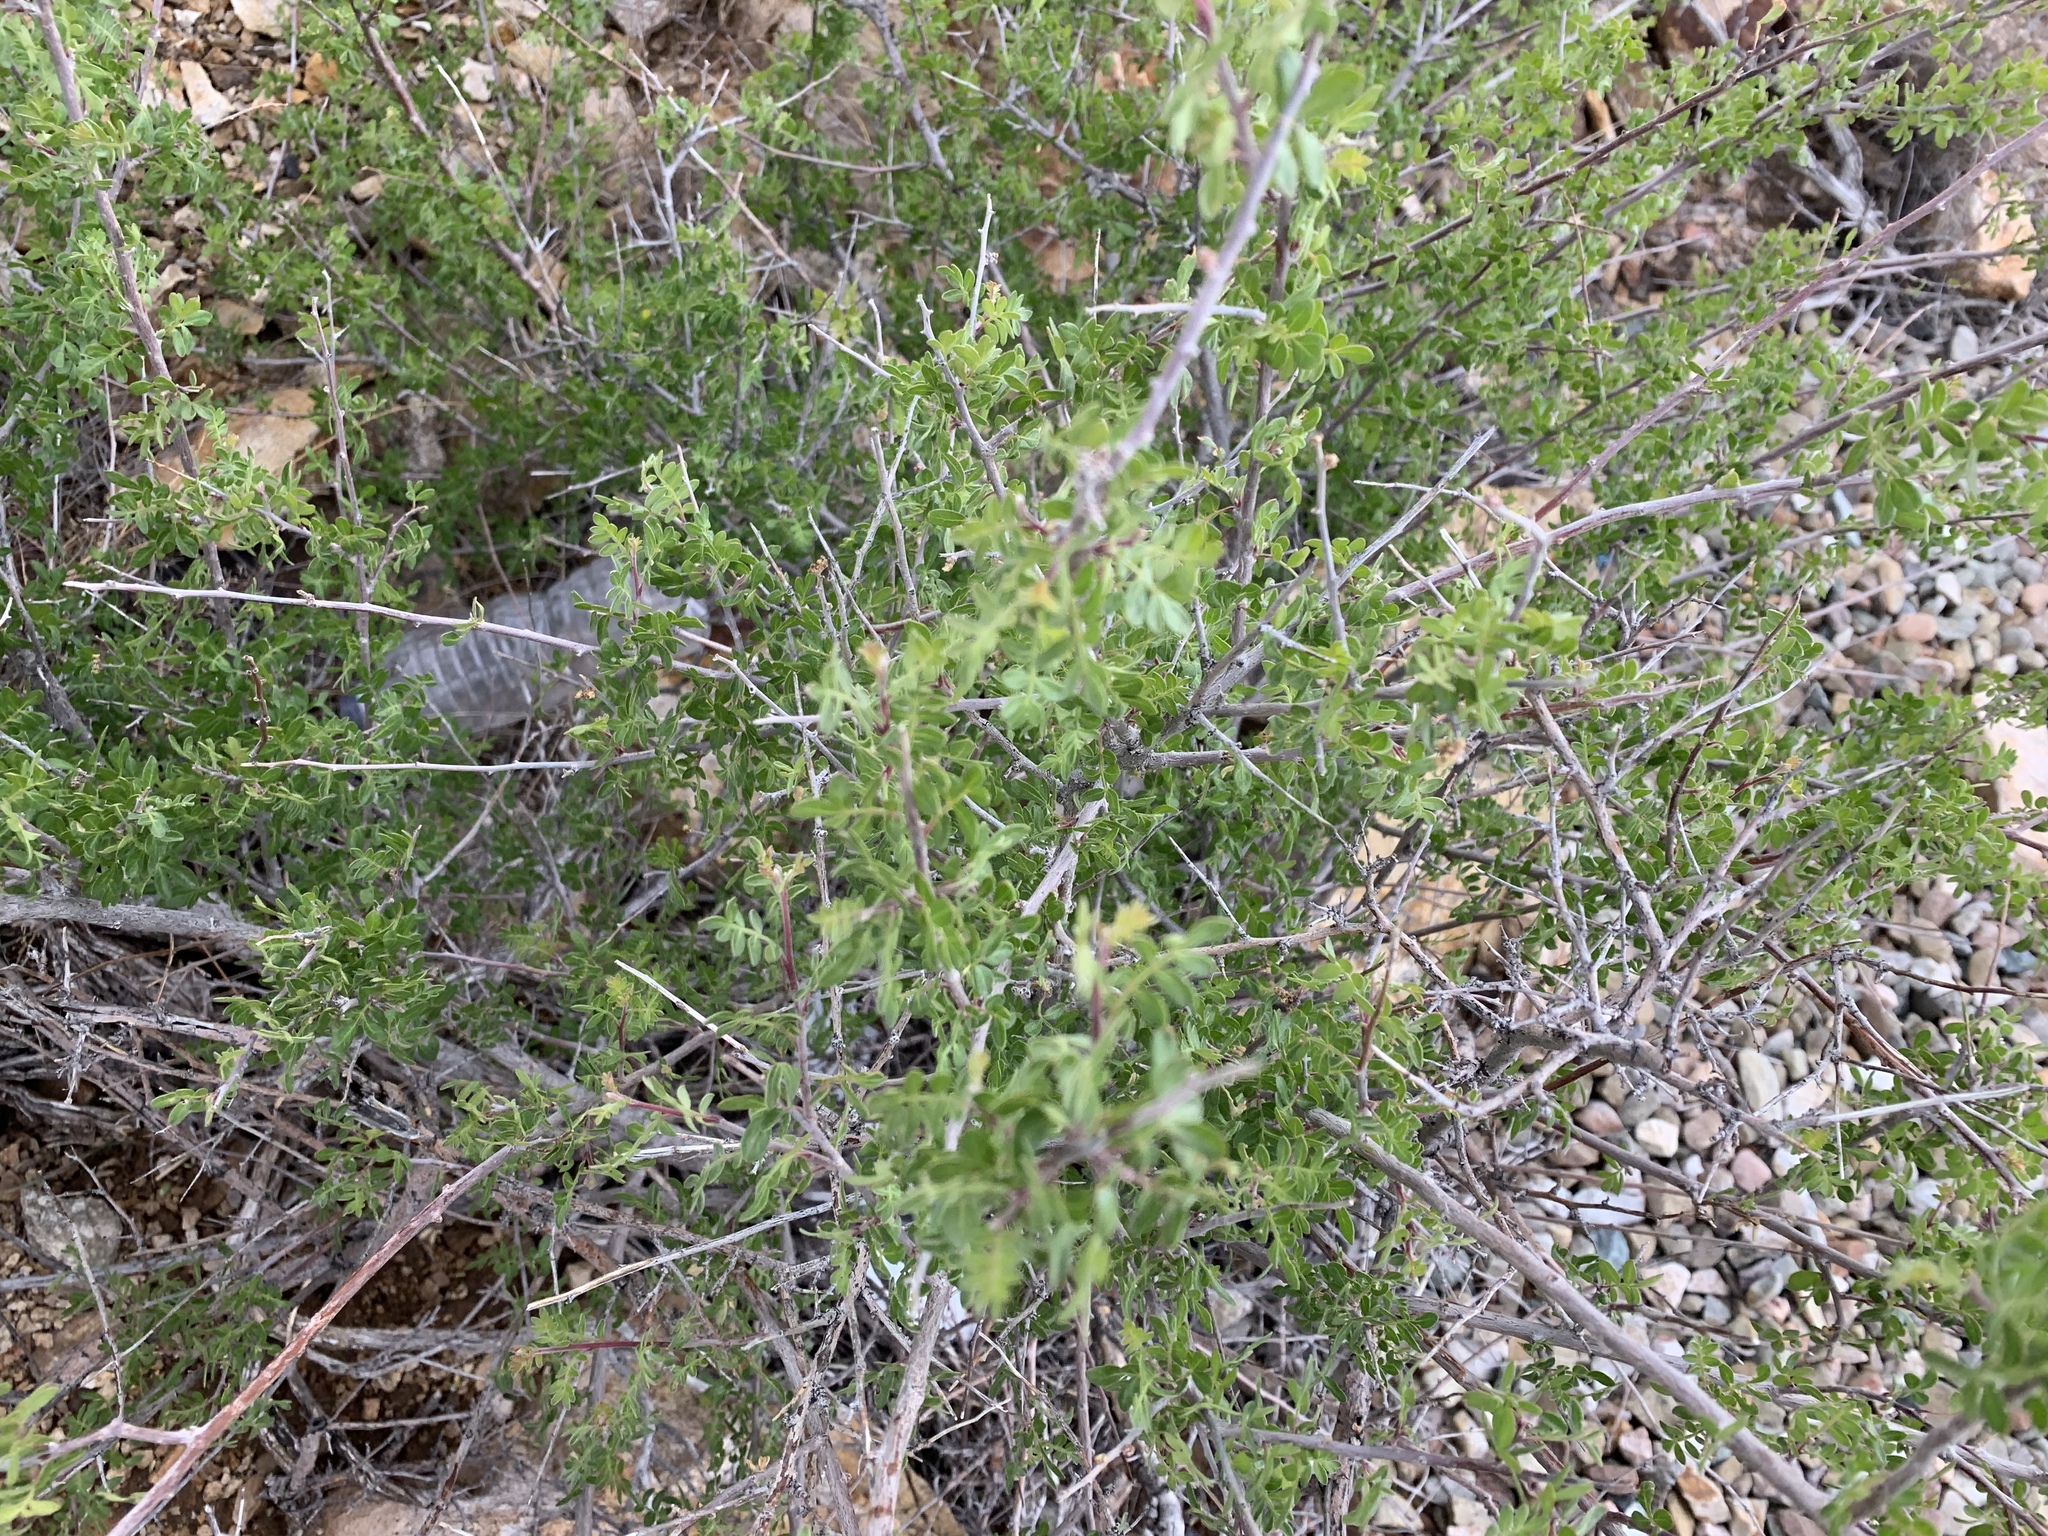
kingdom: Plantae
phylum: Tracheophyta
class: Magnoliopsida
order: Sapindales
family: Anacardiaceae
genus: Rhus
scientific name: Rhus microphylla
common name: Desert sumac
